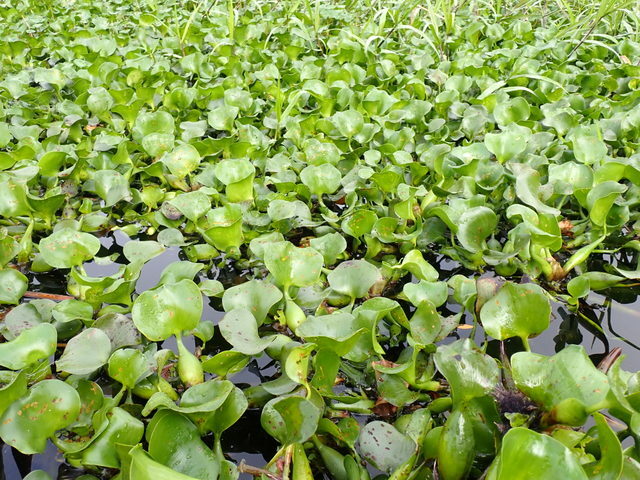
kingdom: Plantae
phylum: Tracheophyta
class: Liliopsida
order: Commelinales
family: Pontederiaceae
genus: Pontederia
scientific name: Pontederia crassipes
